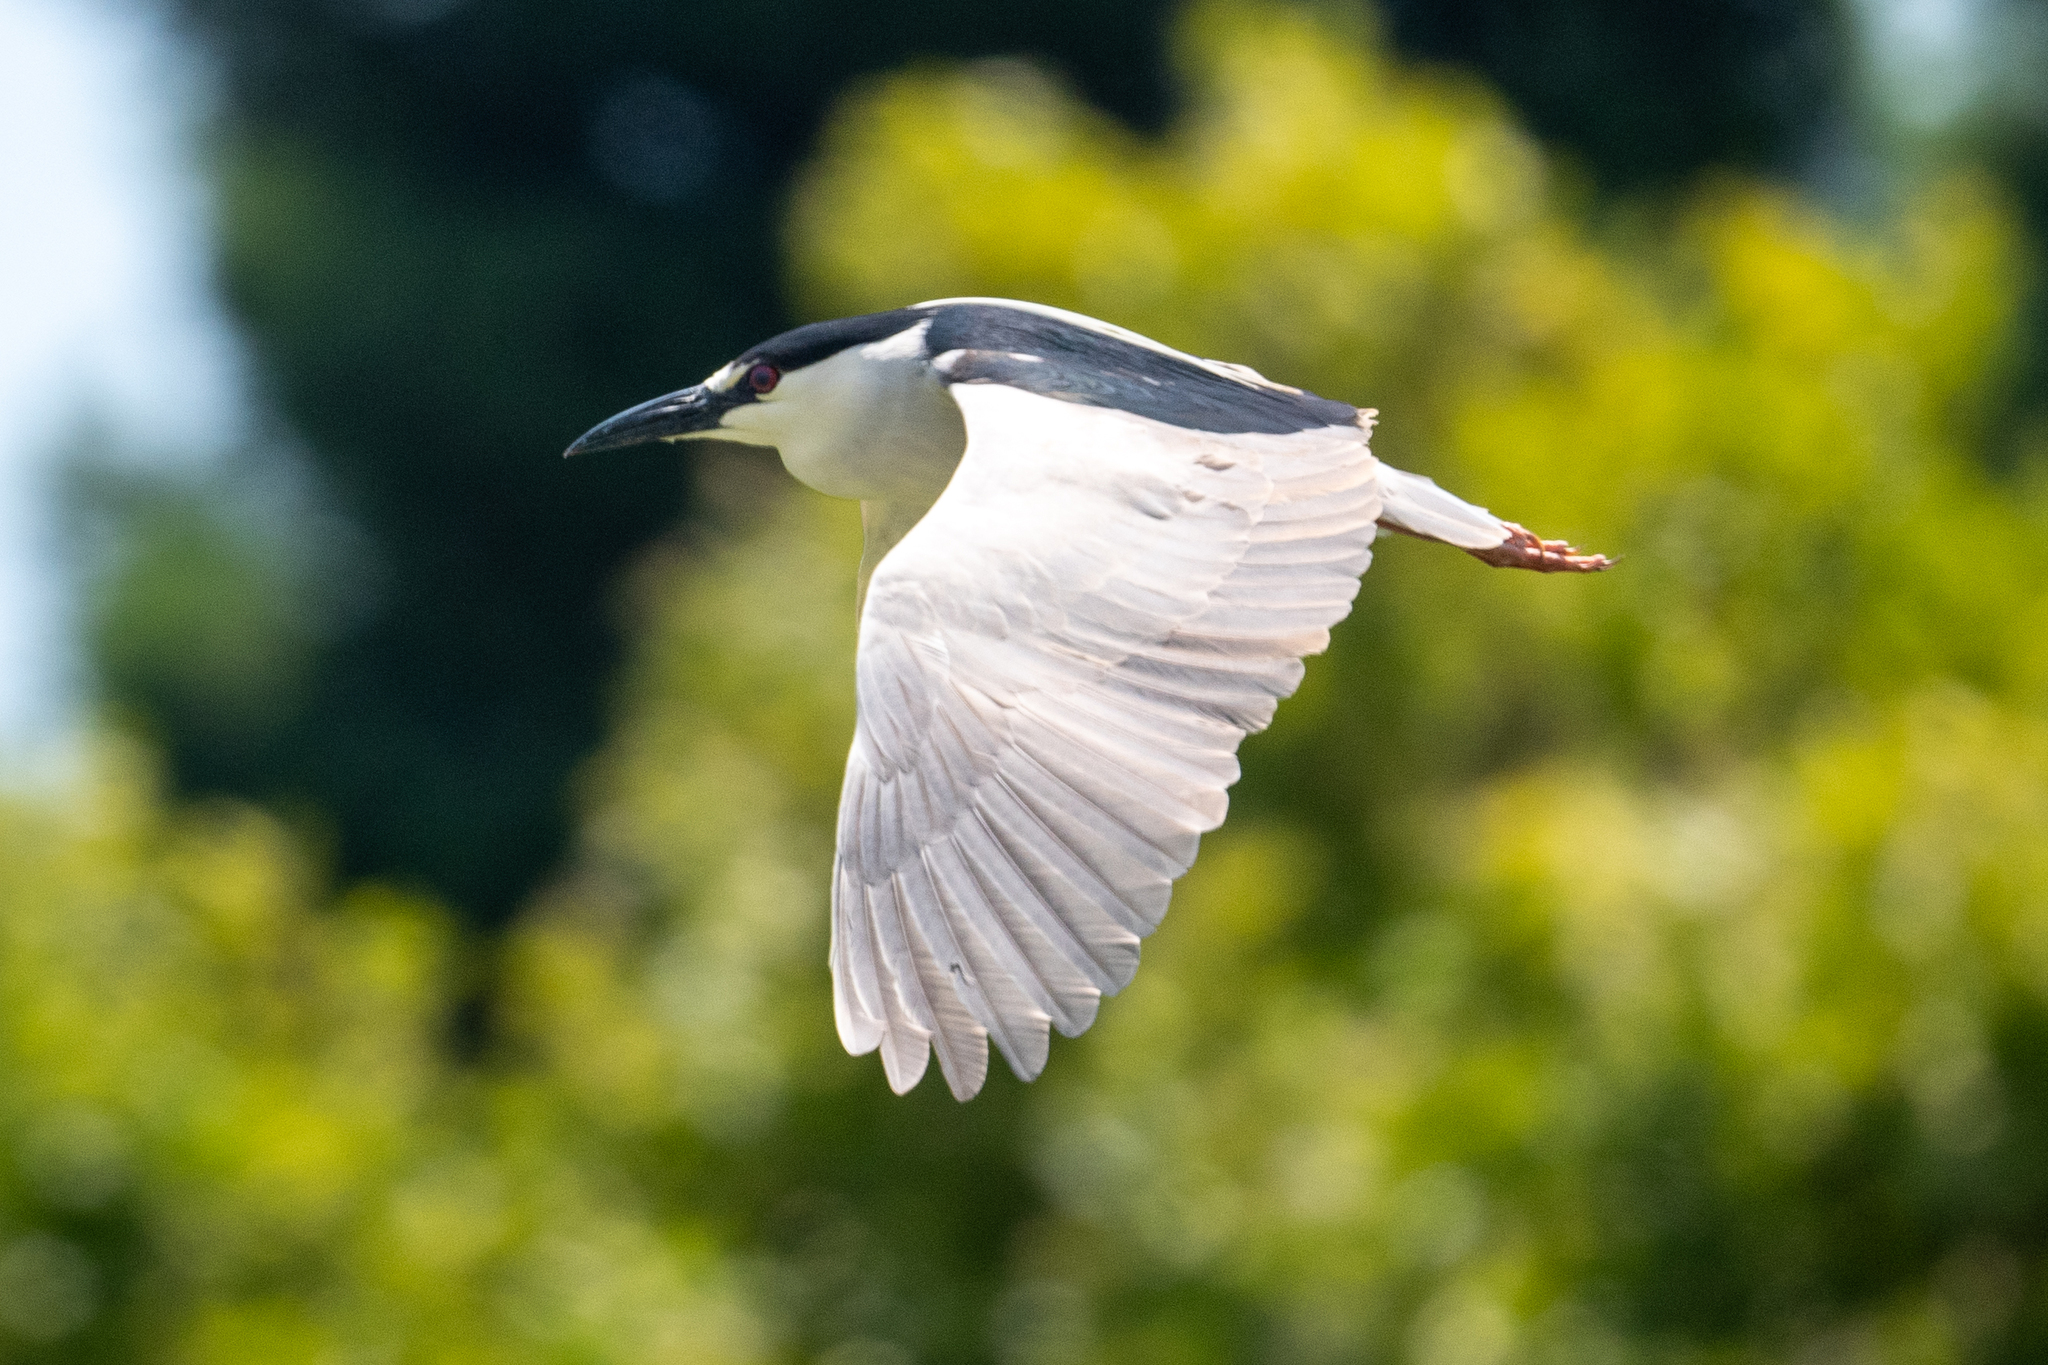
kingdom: Animalia
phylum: Chordata
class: Aves
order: Pelecaniformes
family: Ardeidae
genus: Nycticorax
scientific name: Nycticorax nycticorax
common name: Black-crowned night heron
